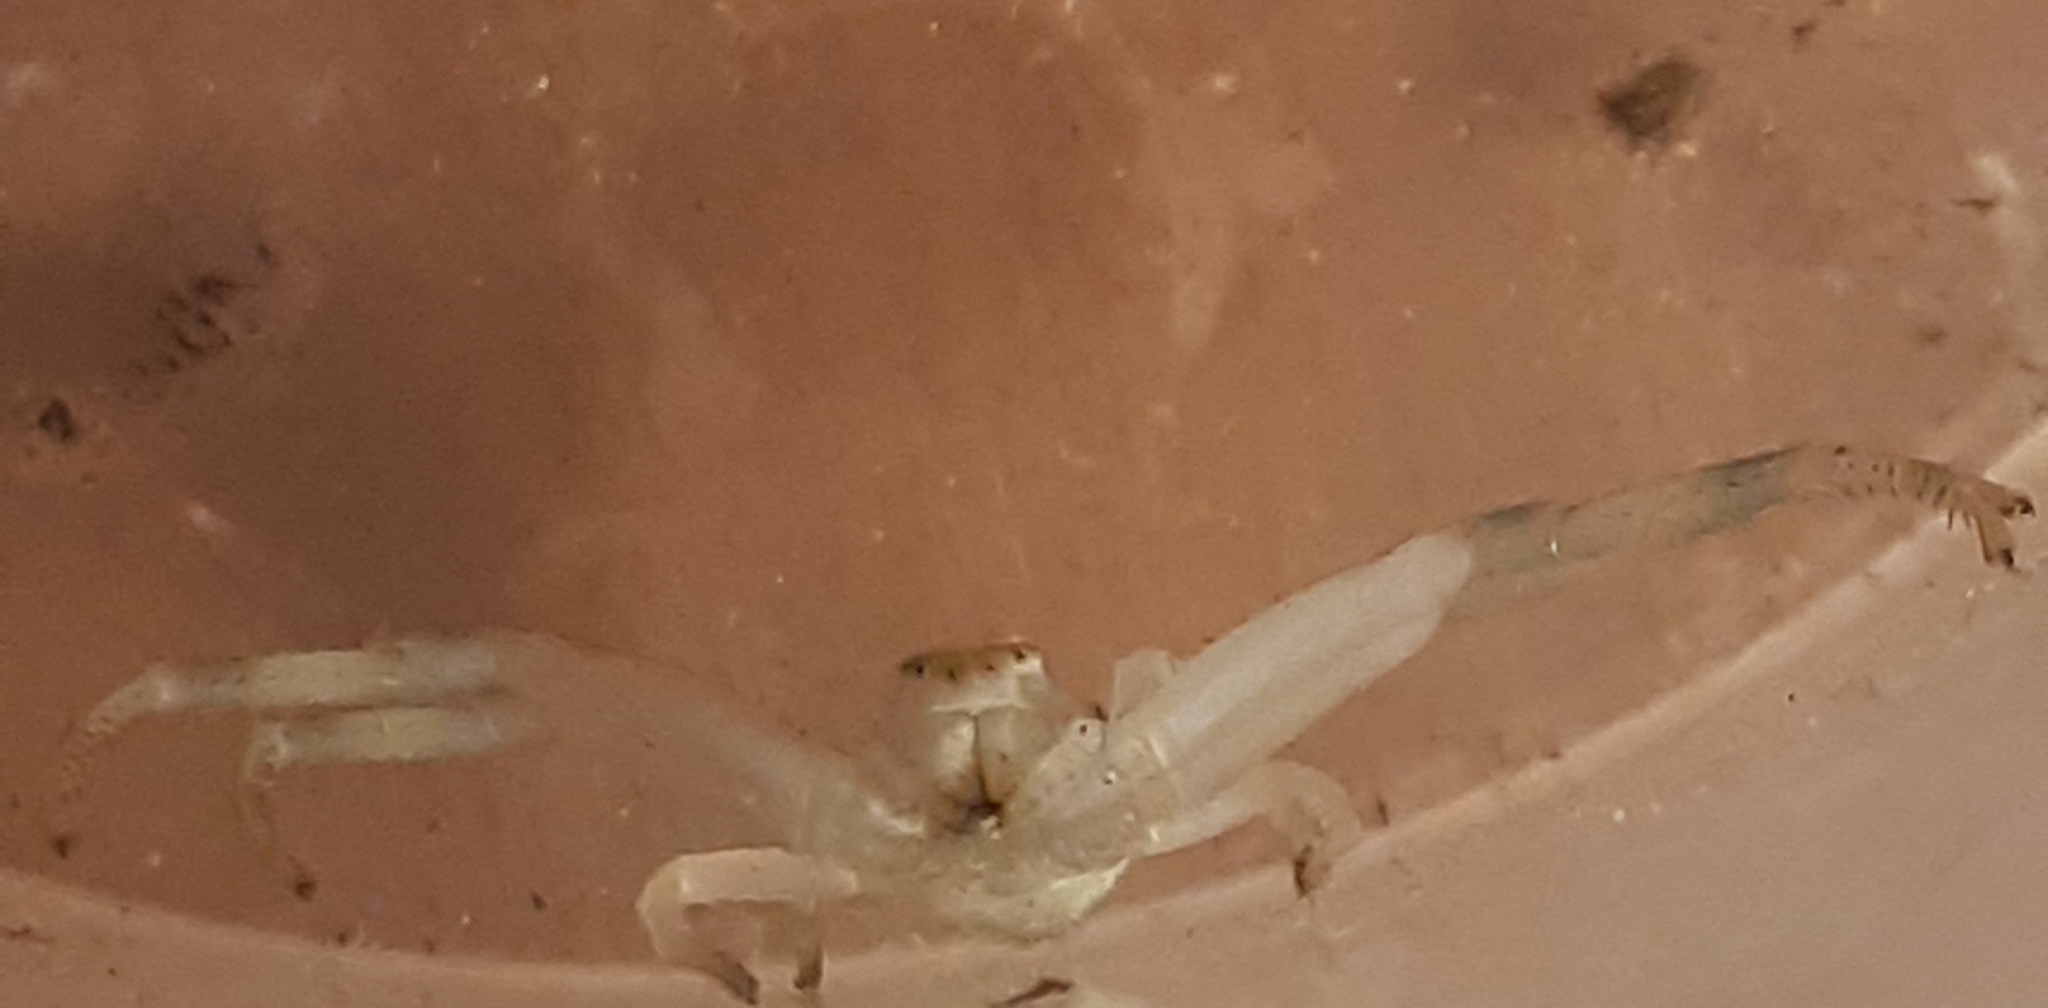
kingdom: Animalia
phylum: Arthropoda
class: Arachnida
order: Araneae
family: Thomisidae
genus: Misumena
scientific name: Misumena vatia
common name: Goldenrod crab spider
